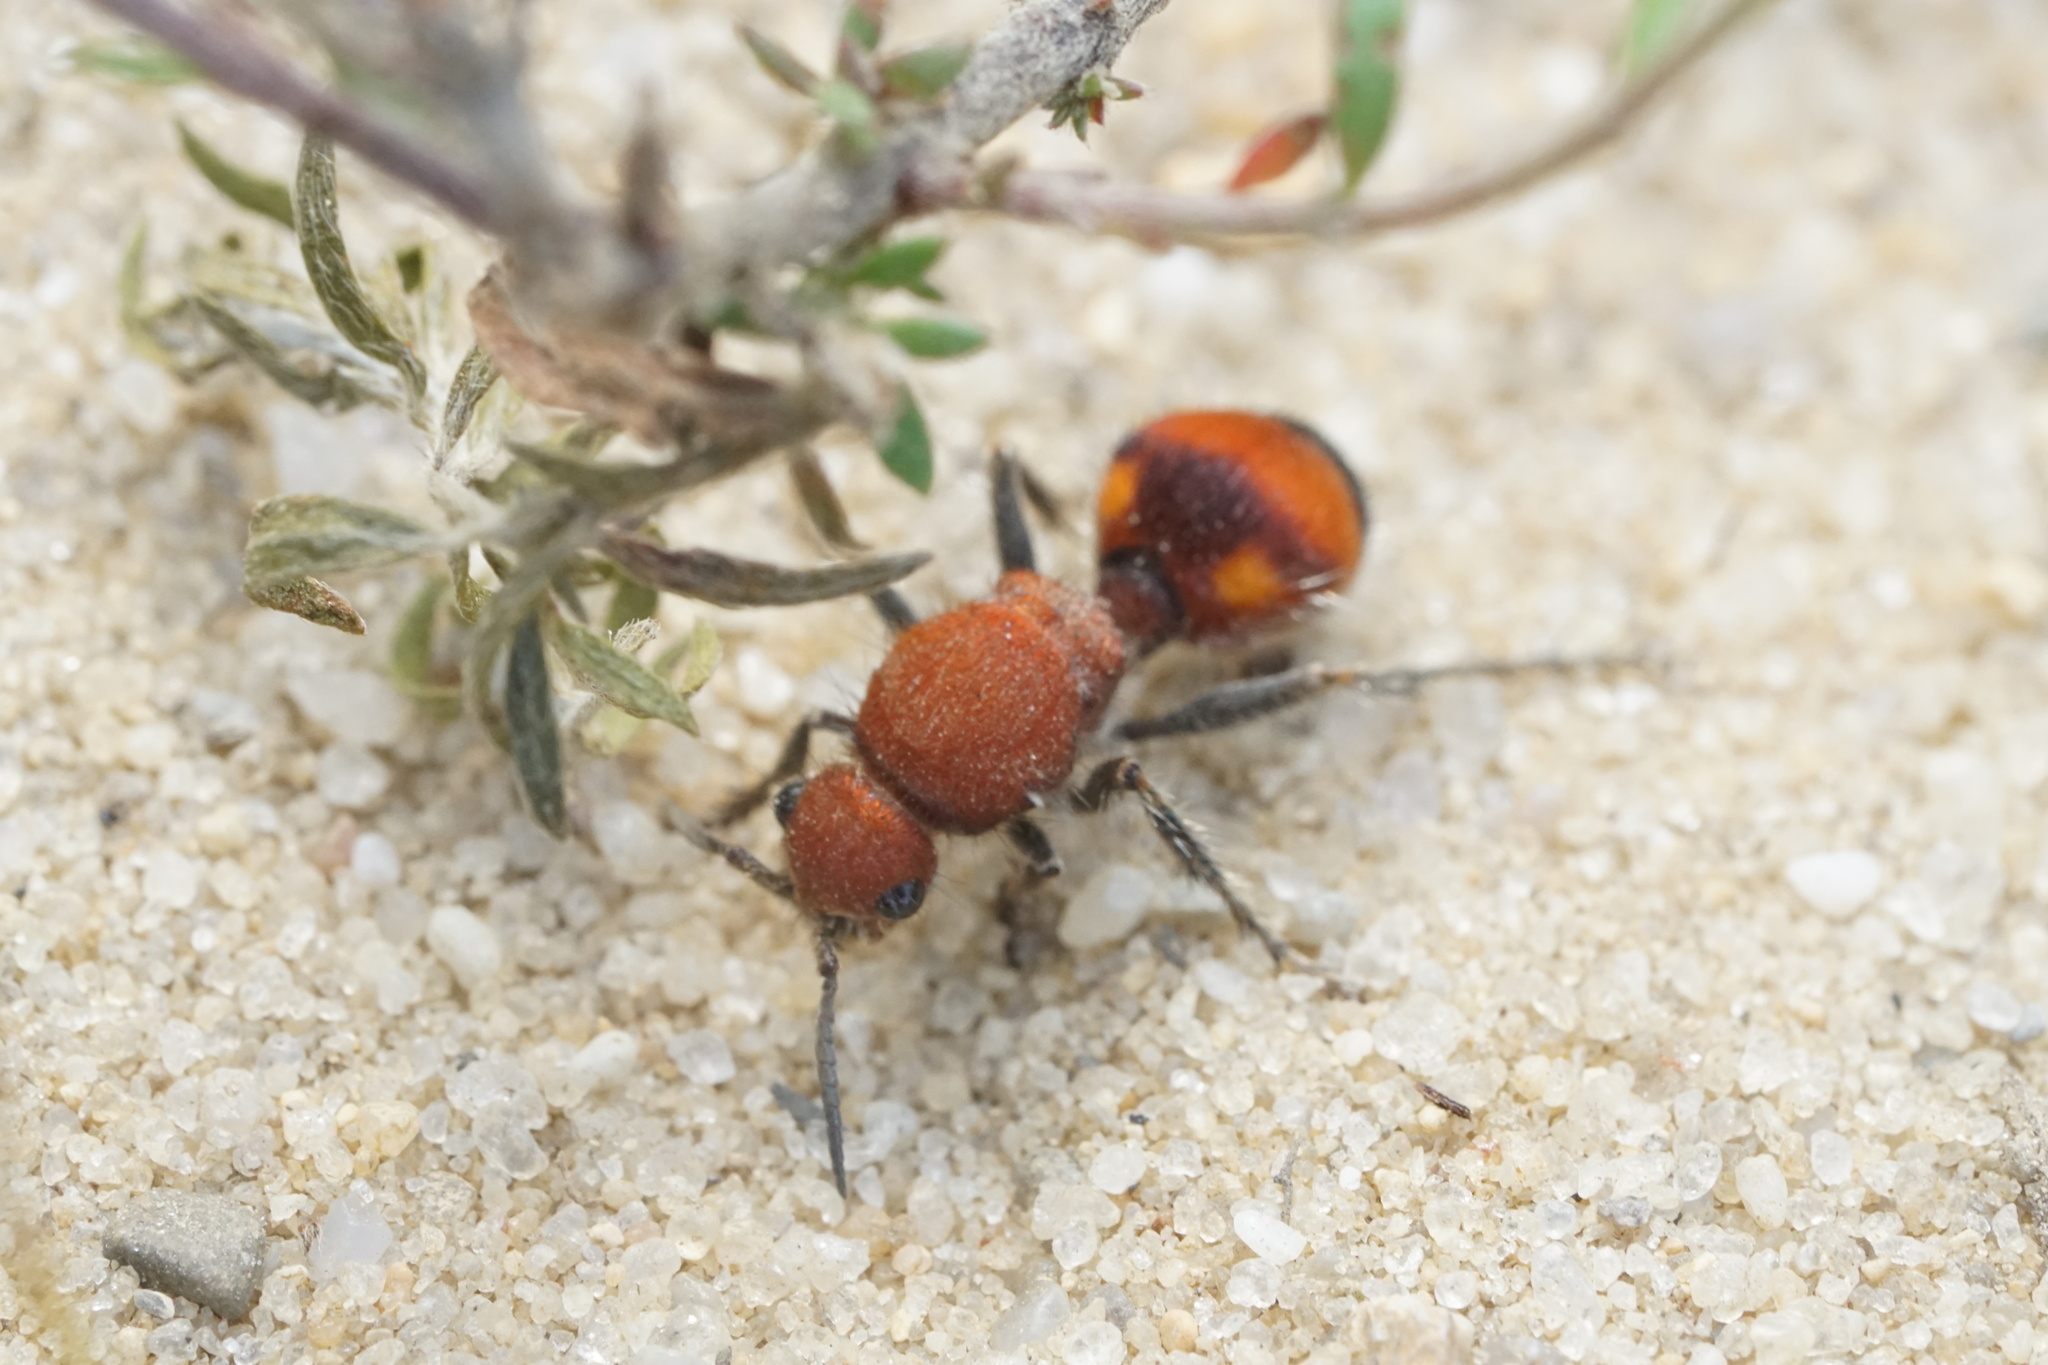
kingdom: Animalia
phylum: Arthropoda
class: Insecta
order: Hymenoptera
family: Mutillidae
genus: Dasymutilla
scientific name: Dasymutilla
